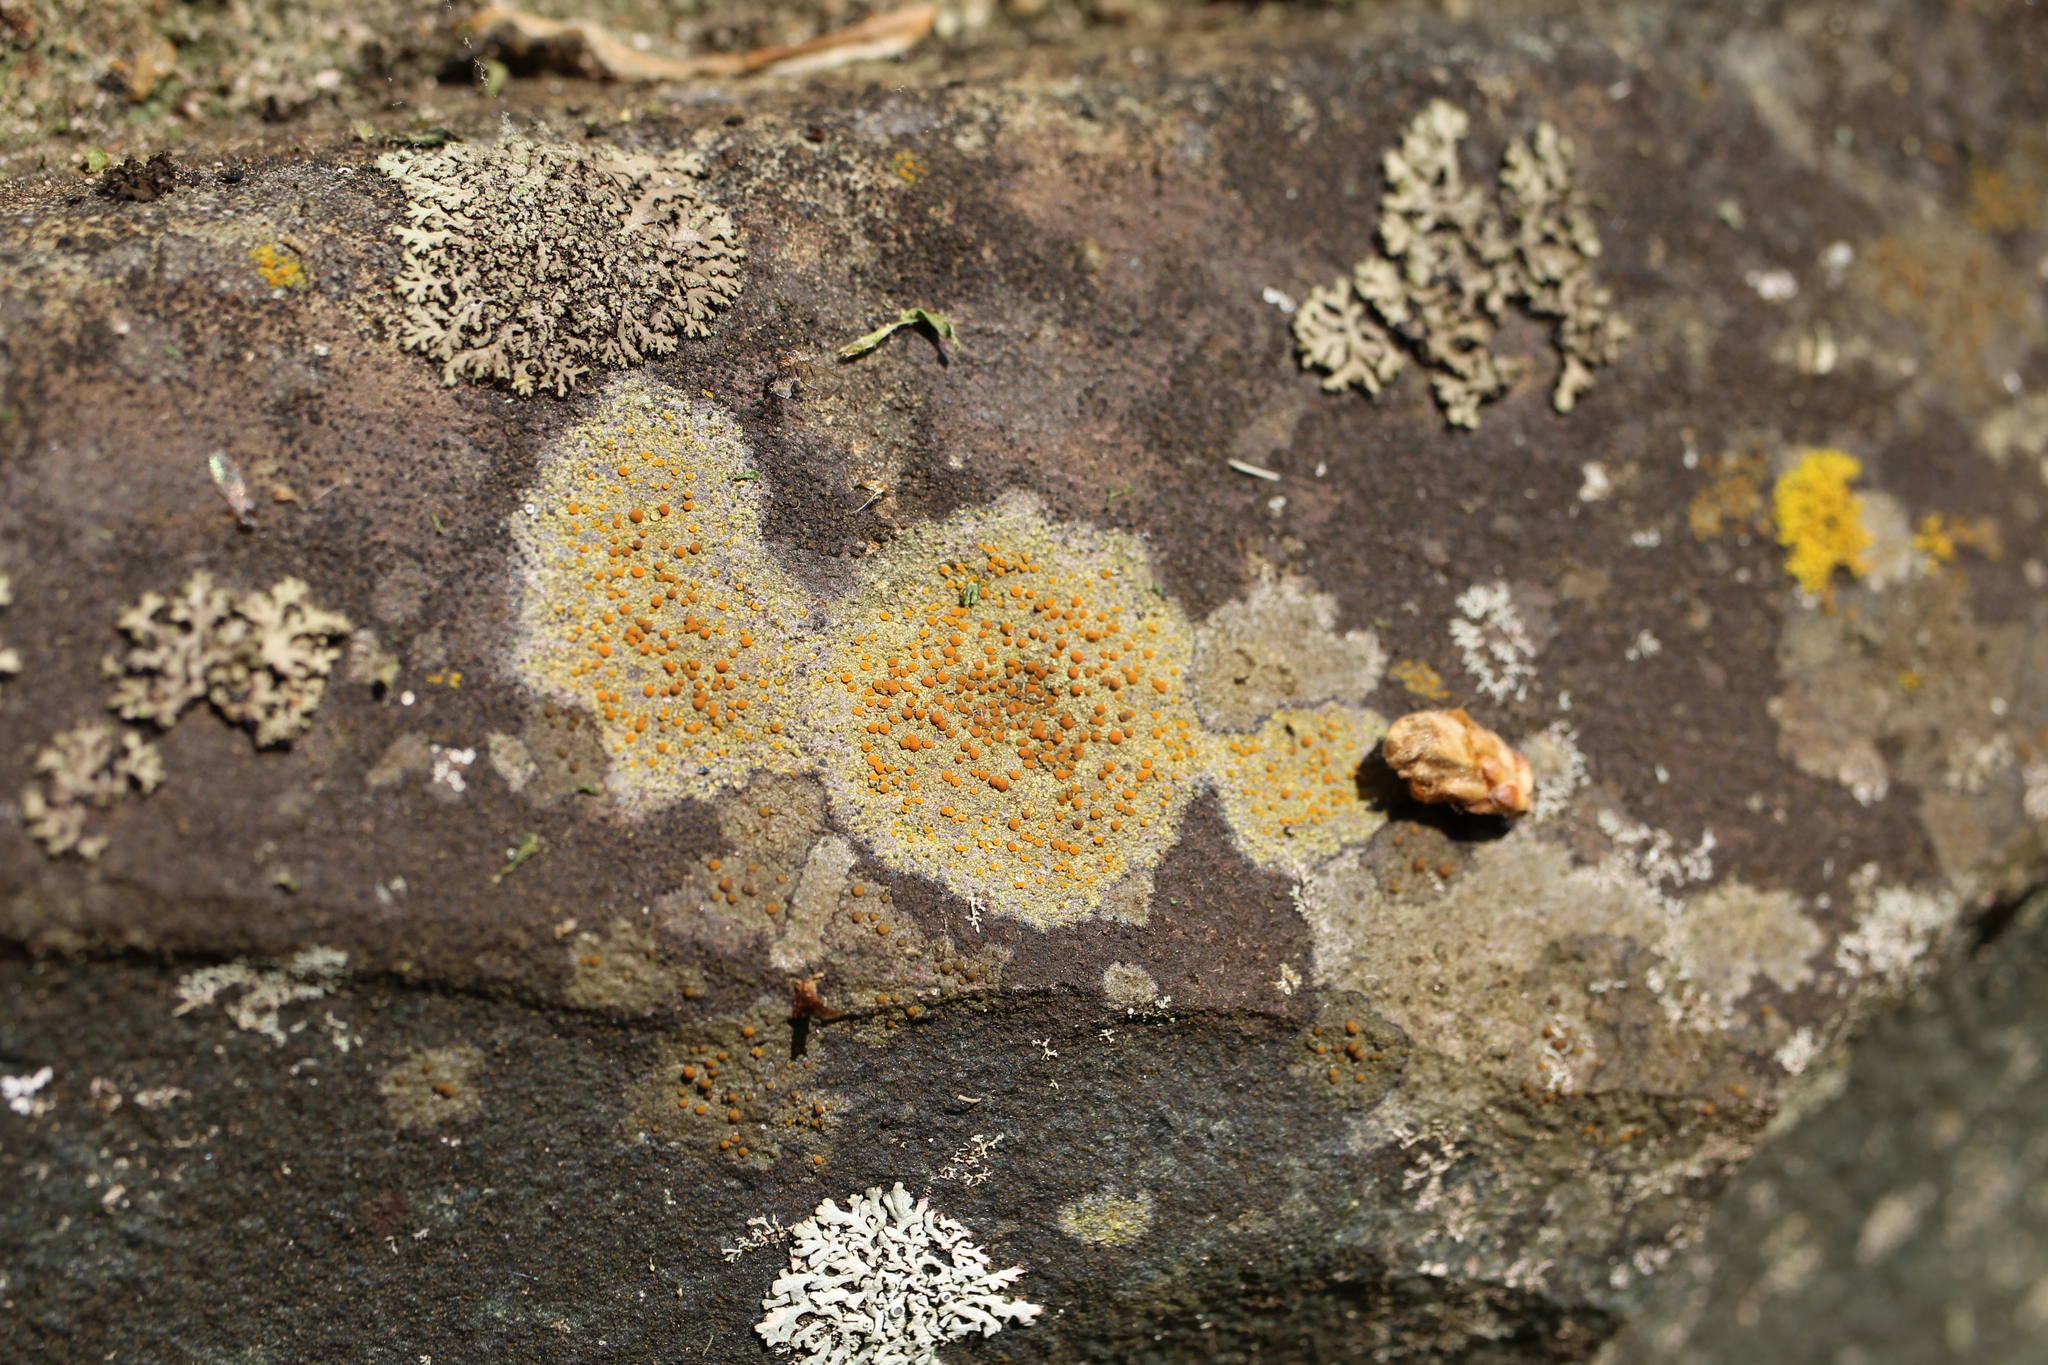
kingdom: Fungi
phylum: Ascomycota
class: Lecanoromycetes
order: Teloschistales
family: Teloschistaceae
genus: Gyalolechia
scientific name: Gyalolechia flavovirescens
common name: Sulphur firedot
